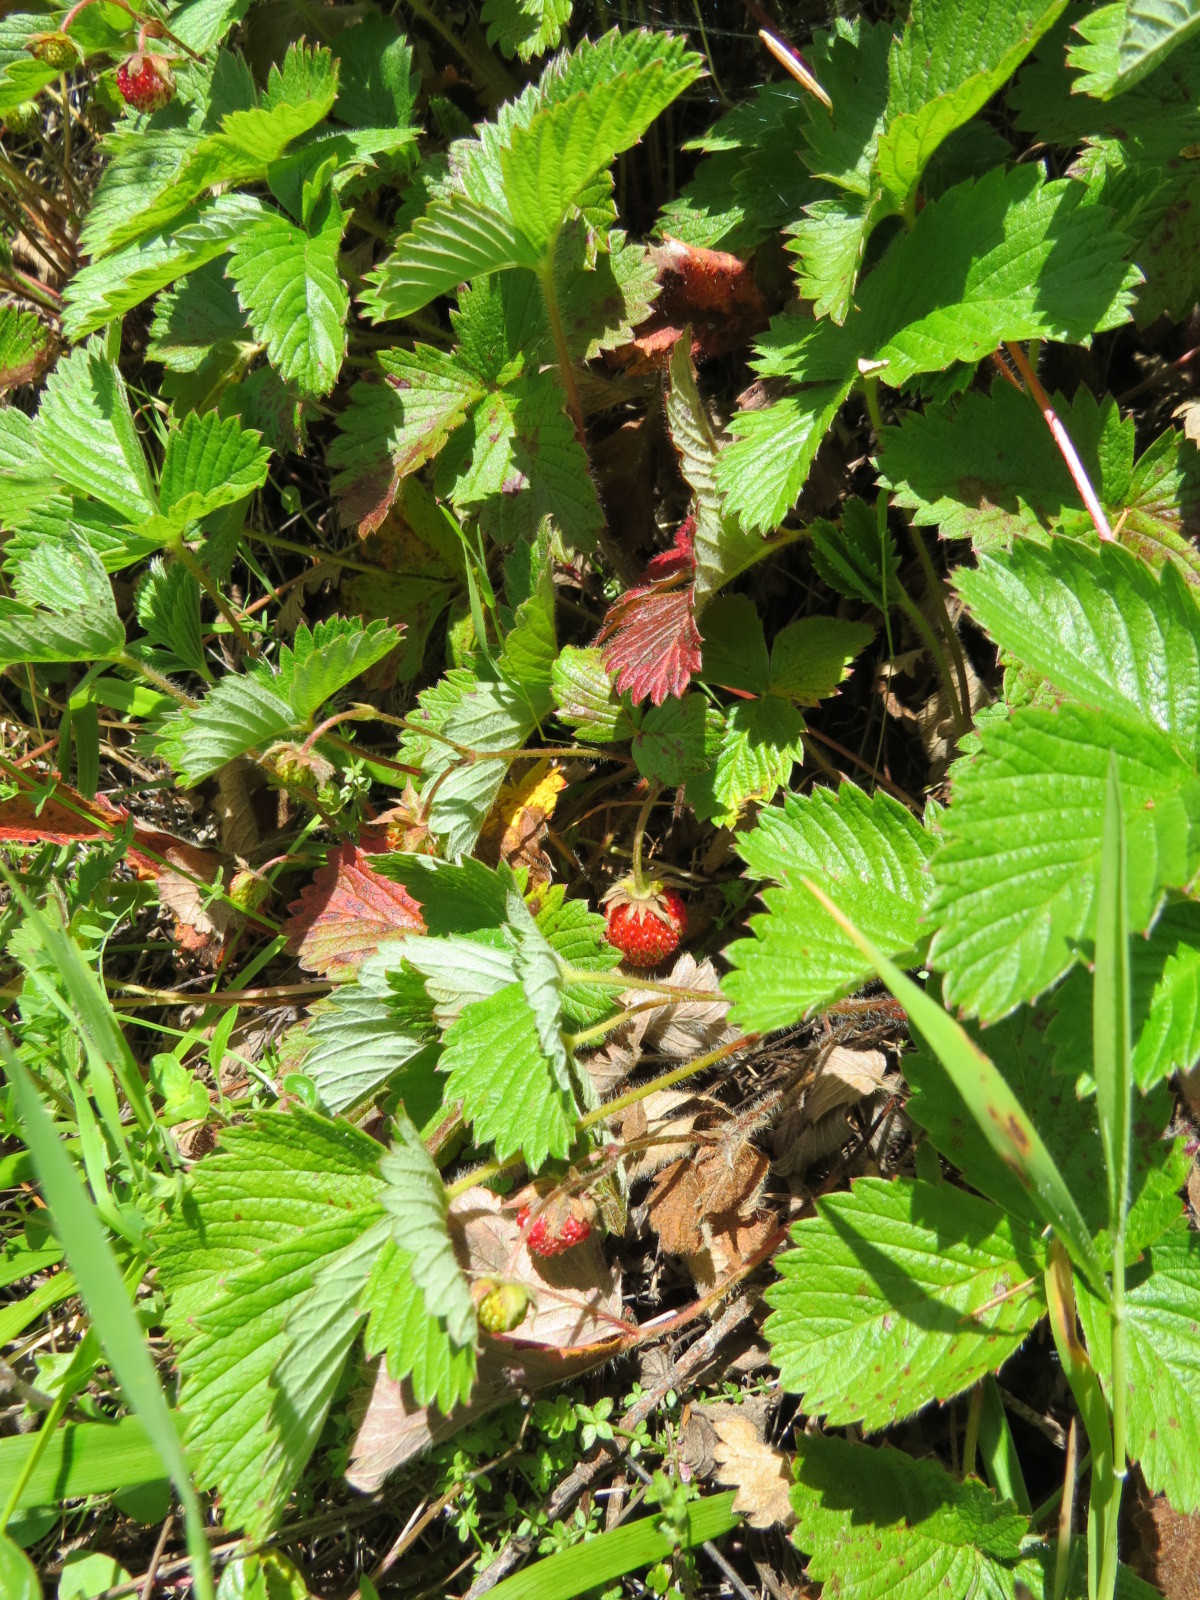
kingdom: Plantae
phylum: Tracheophyta
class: Magnoliopsida
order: Rosales
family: Rosaceae
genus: Fragaria
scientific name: Fragaria vesca
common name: Wild strawberry
